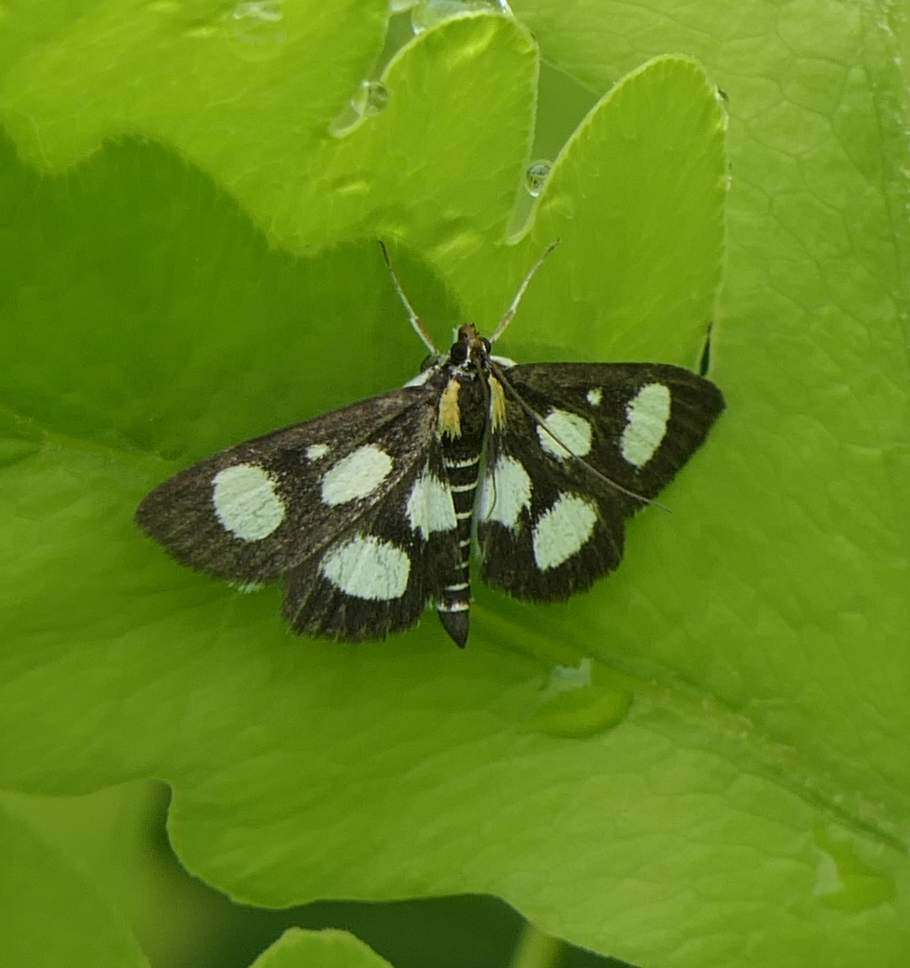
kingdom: Animalia
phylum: Arthropoda
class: Insecta
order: Lepidoptera
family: Crambidae
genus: Anania
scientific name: Anania funebris
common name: White-spotted sable moth
